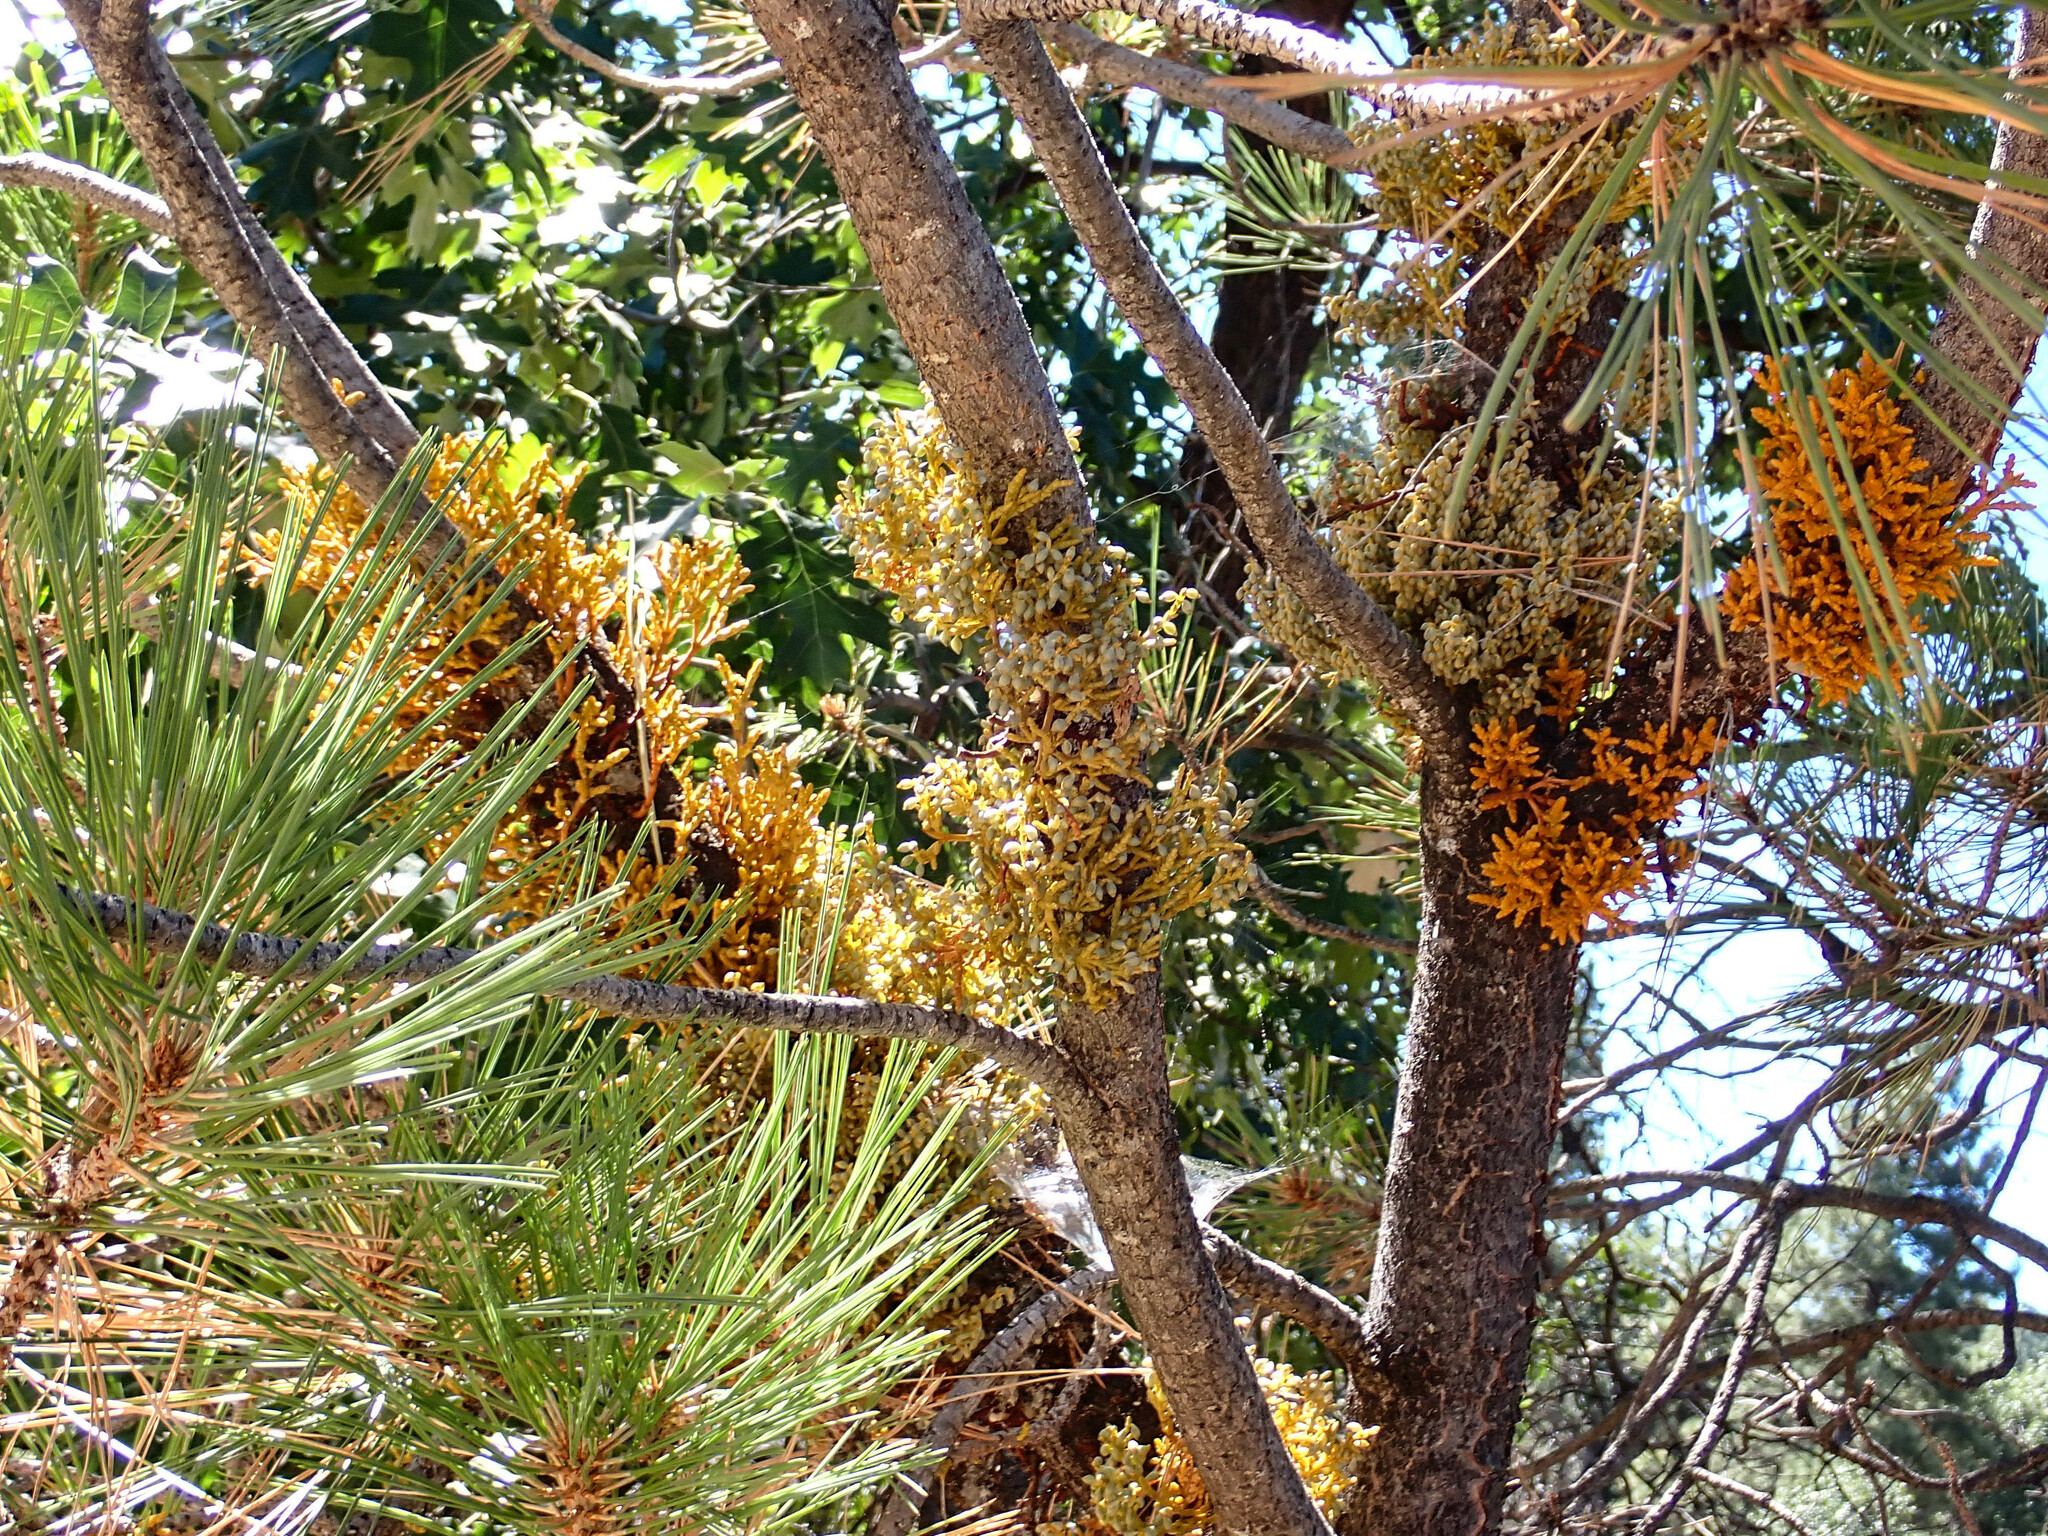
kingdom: Plantae
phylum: Tracheophyta
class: Magnoliopsida
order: Santalales
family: Viscaceae
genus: Arceuthobium
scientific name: Arceuthobium campylopodum
